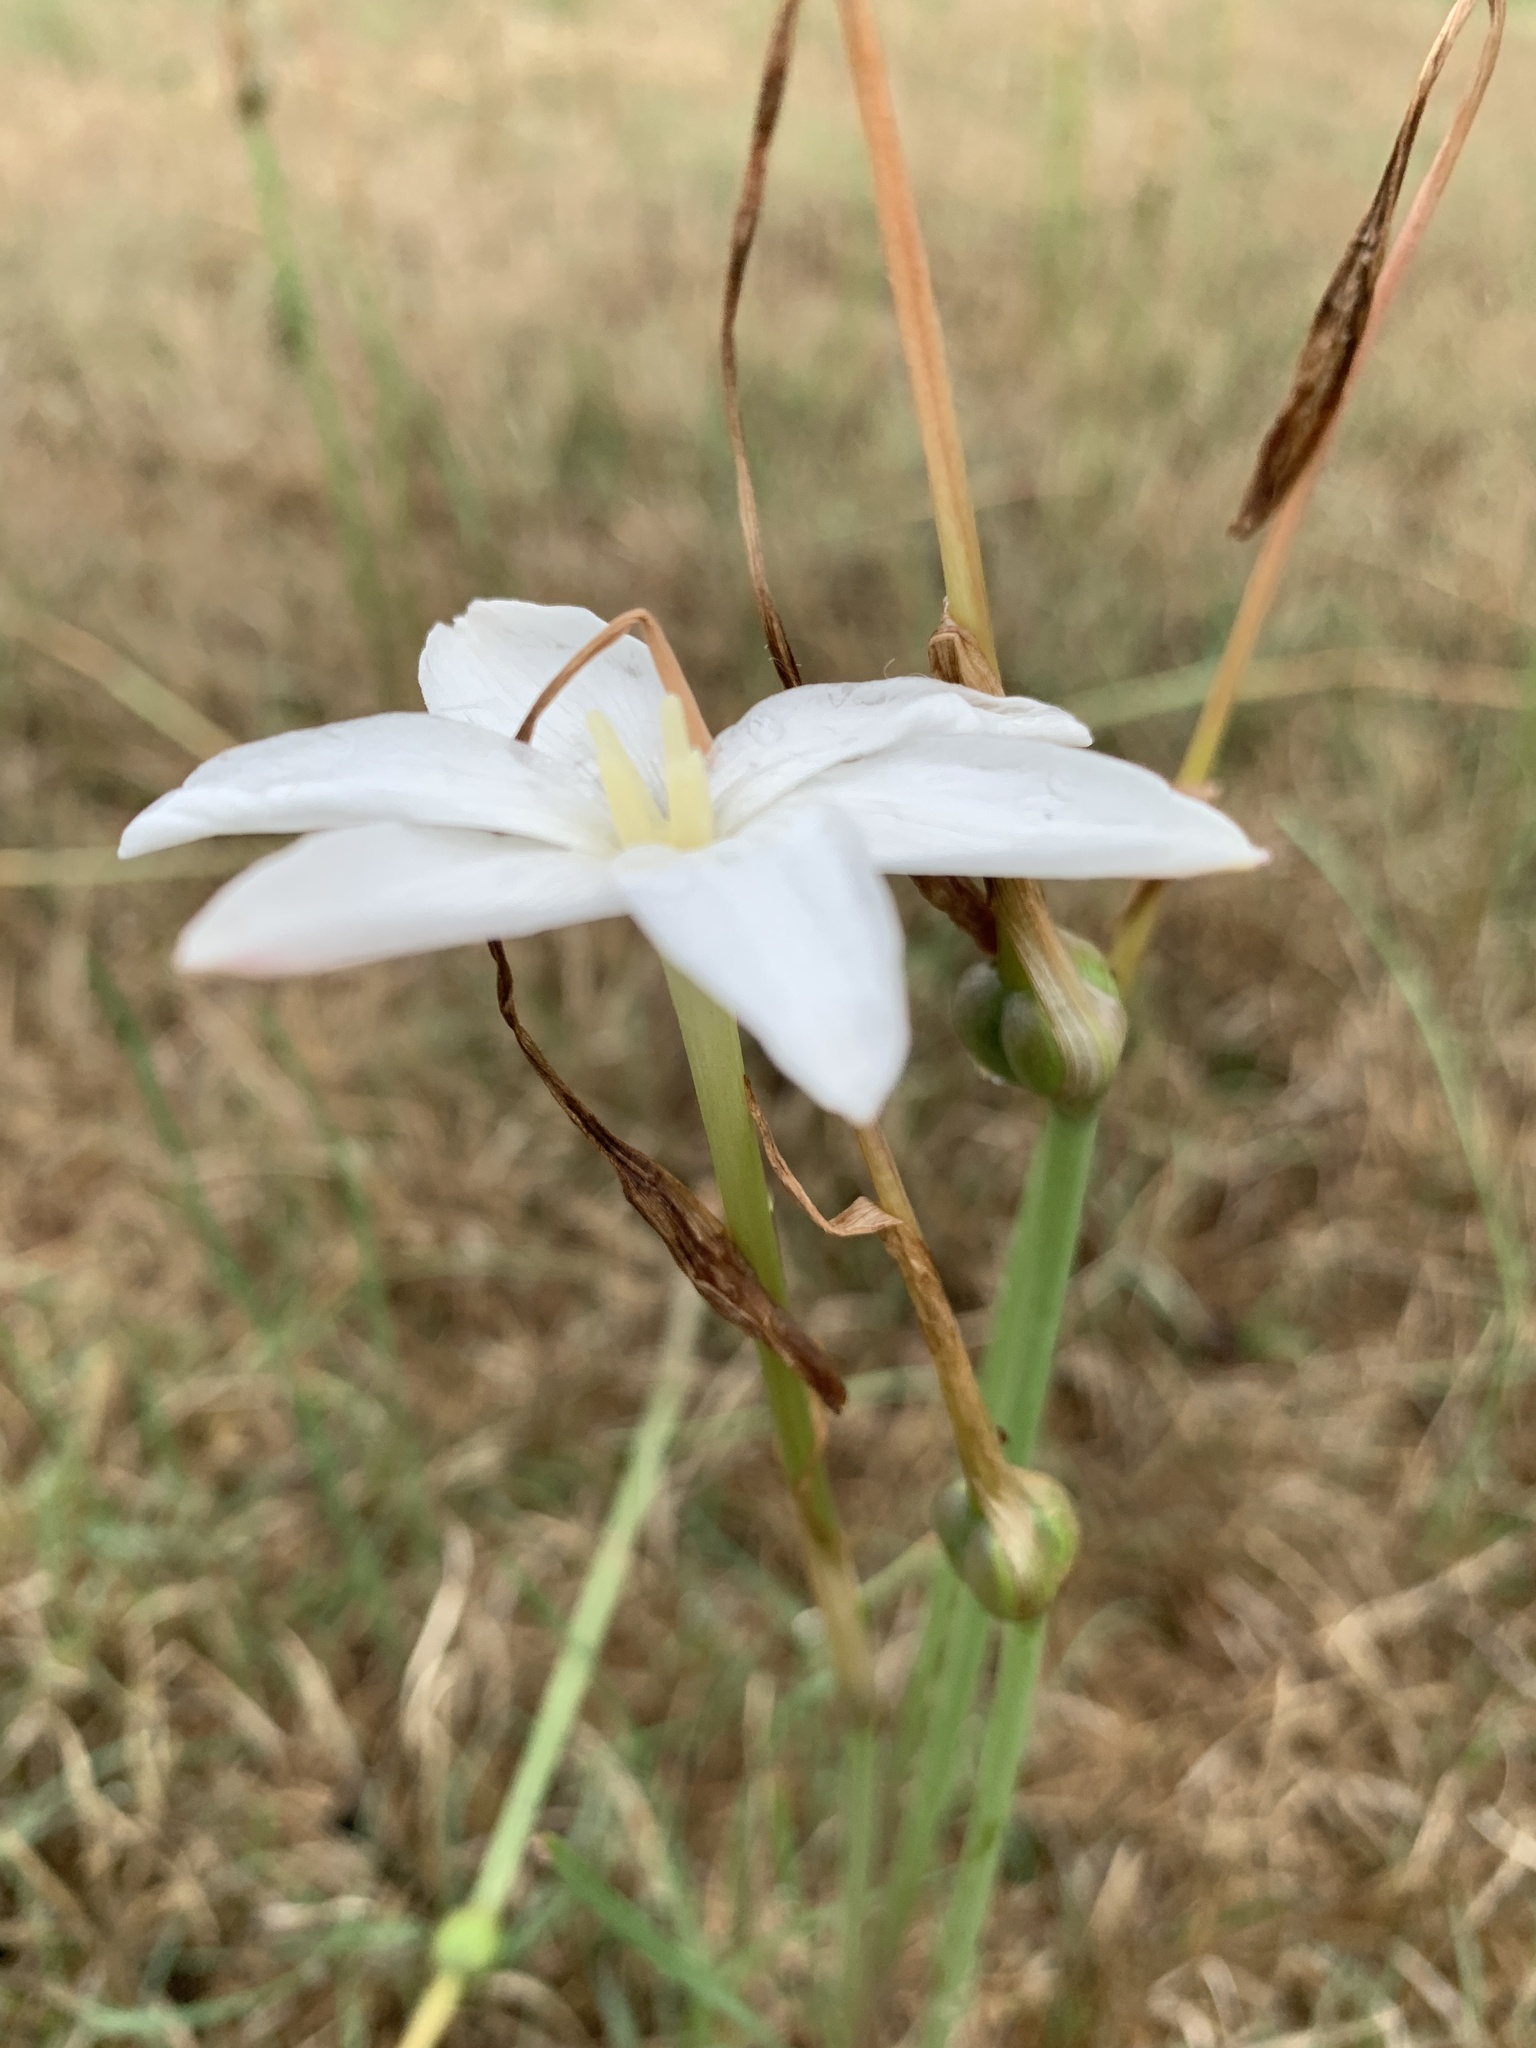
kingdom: Plantae
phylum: Tracheophyta
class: Liliopsida
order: Asparagales
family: Amaryllidaceae
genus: Zephyranthes
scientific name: Zephyranthes chlorosolen
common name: Evening rain-lily
